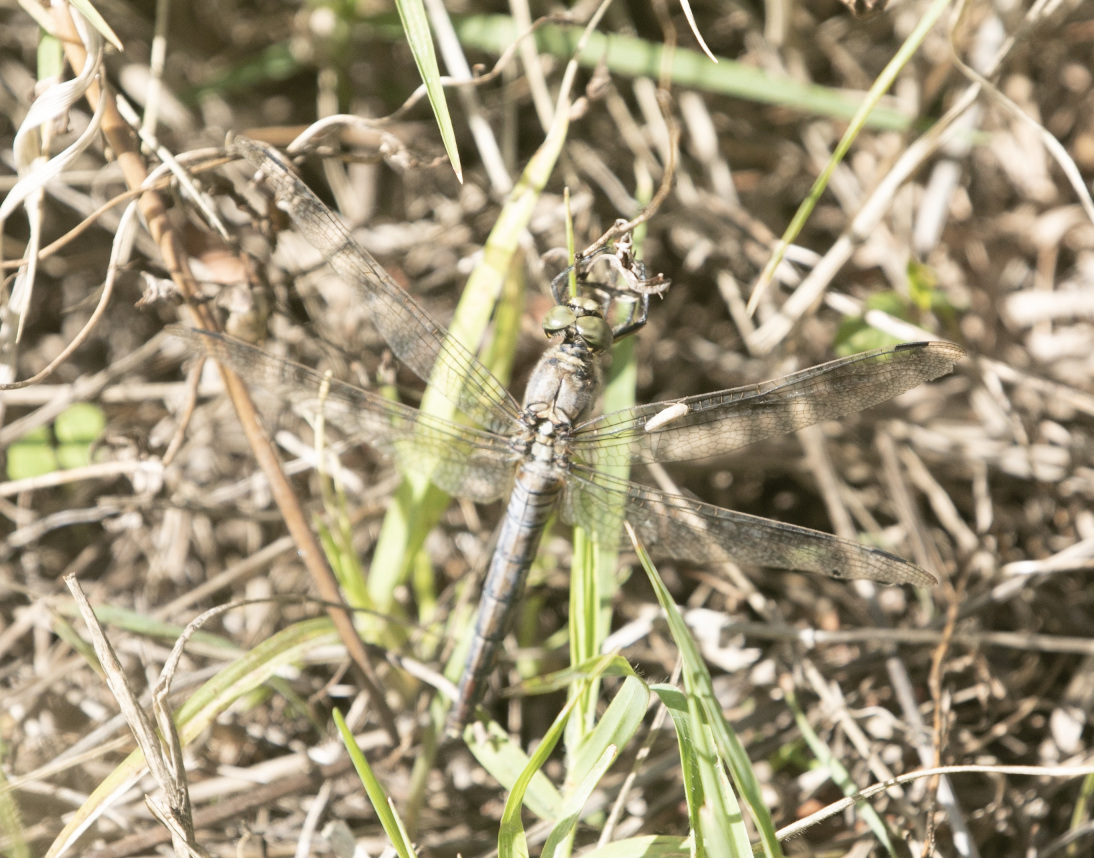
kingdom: Animalia
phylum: Arthropoda
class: Insecta
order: Odonata
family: Libellulidae
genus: Orthetrum
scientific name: Orthetrum cancellatum
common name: Black-tailed skimmer
